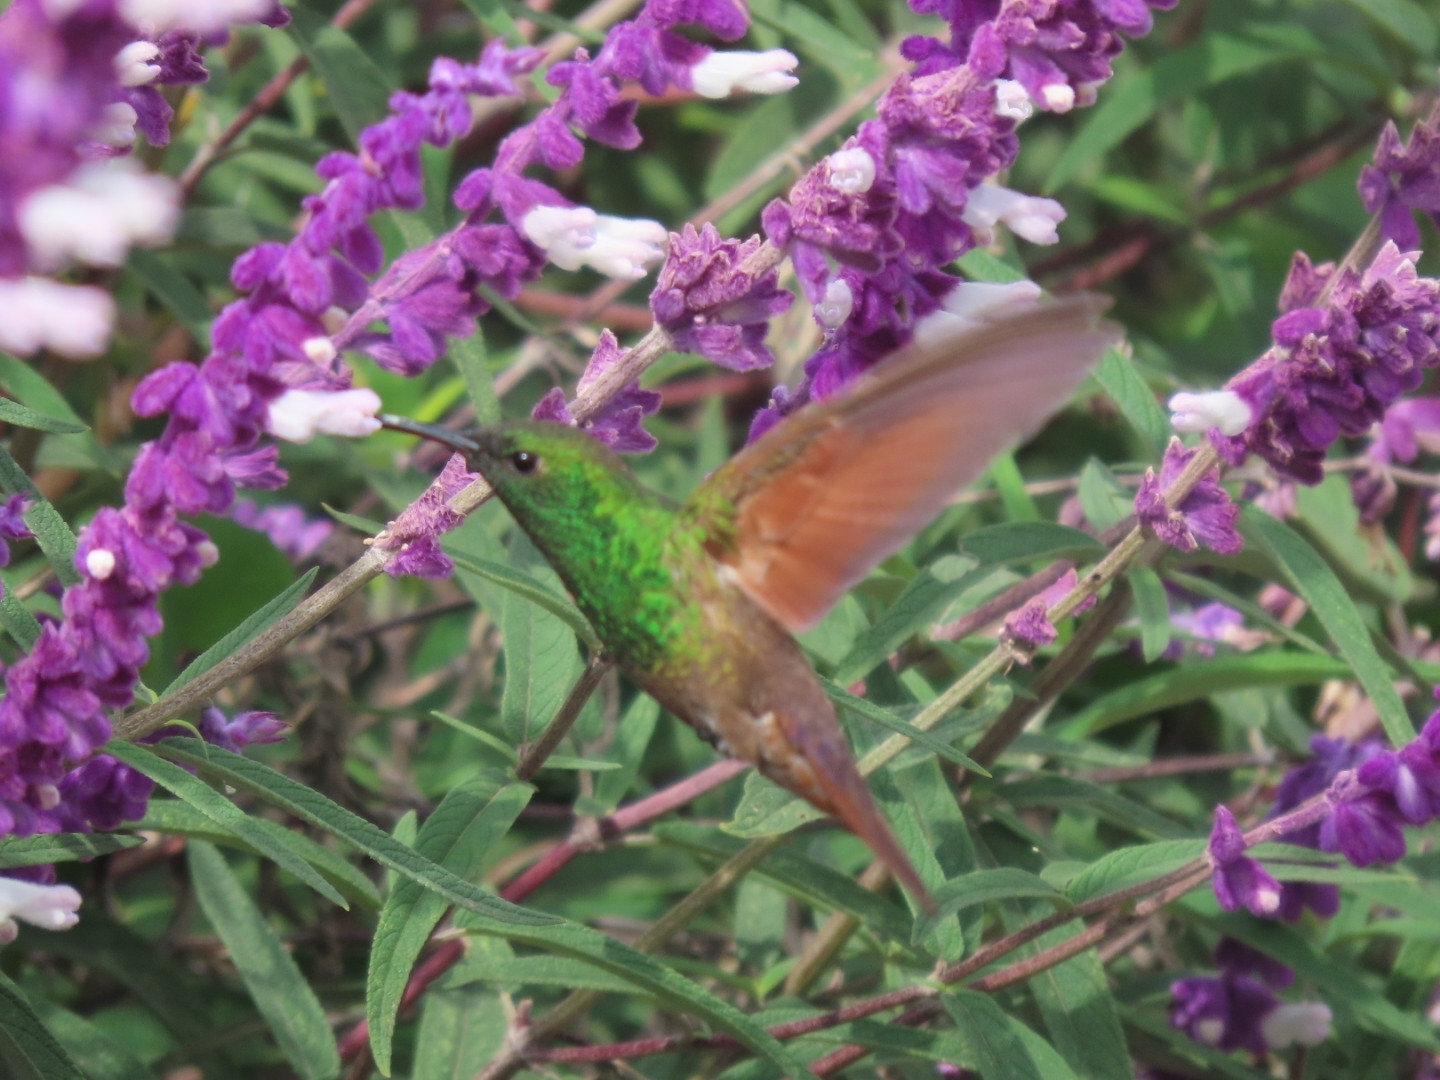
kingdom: Animalia
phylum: Chordata
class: Aves
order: Apodiformes
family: Trochilidae
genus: Saucerottia
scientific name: Saucerottia beryllina
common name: Berylline hummingbird
